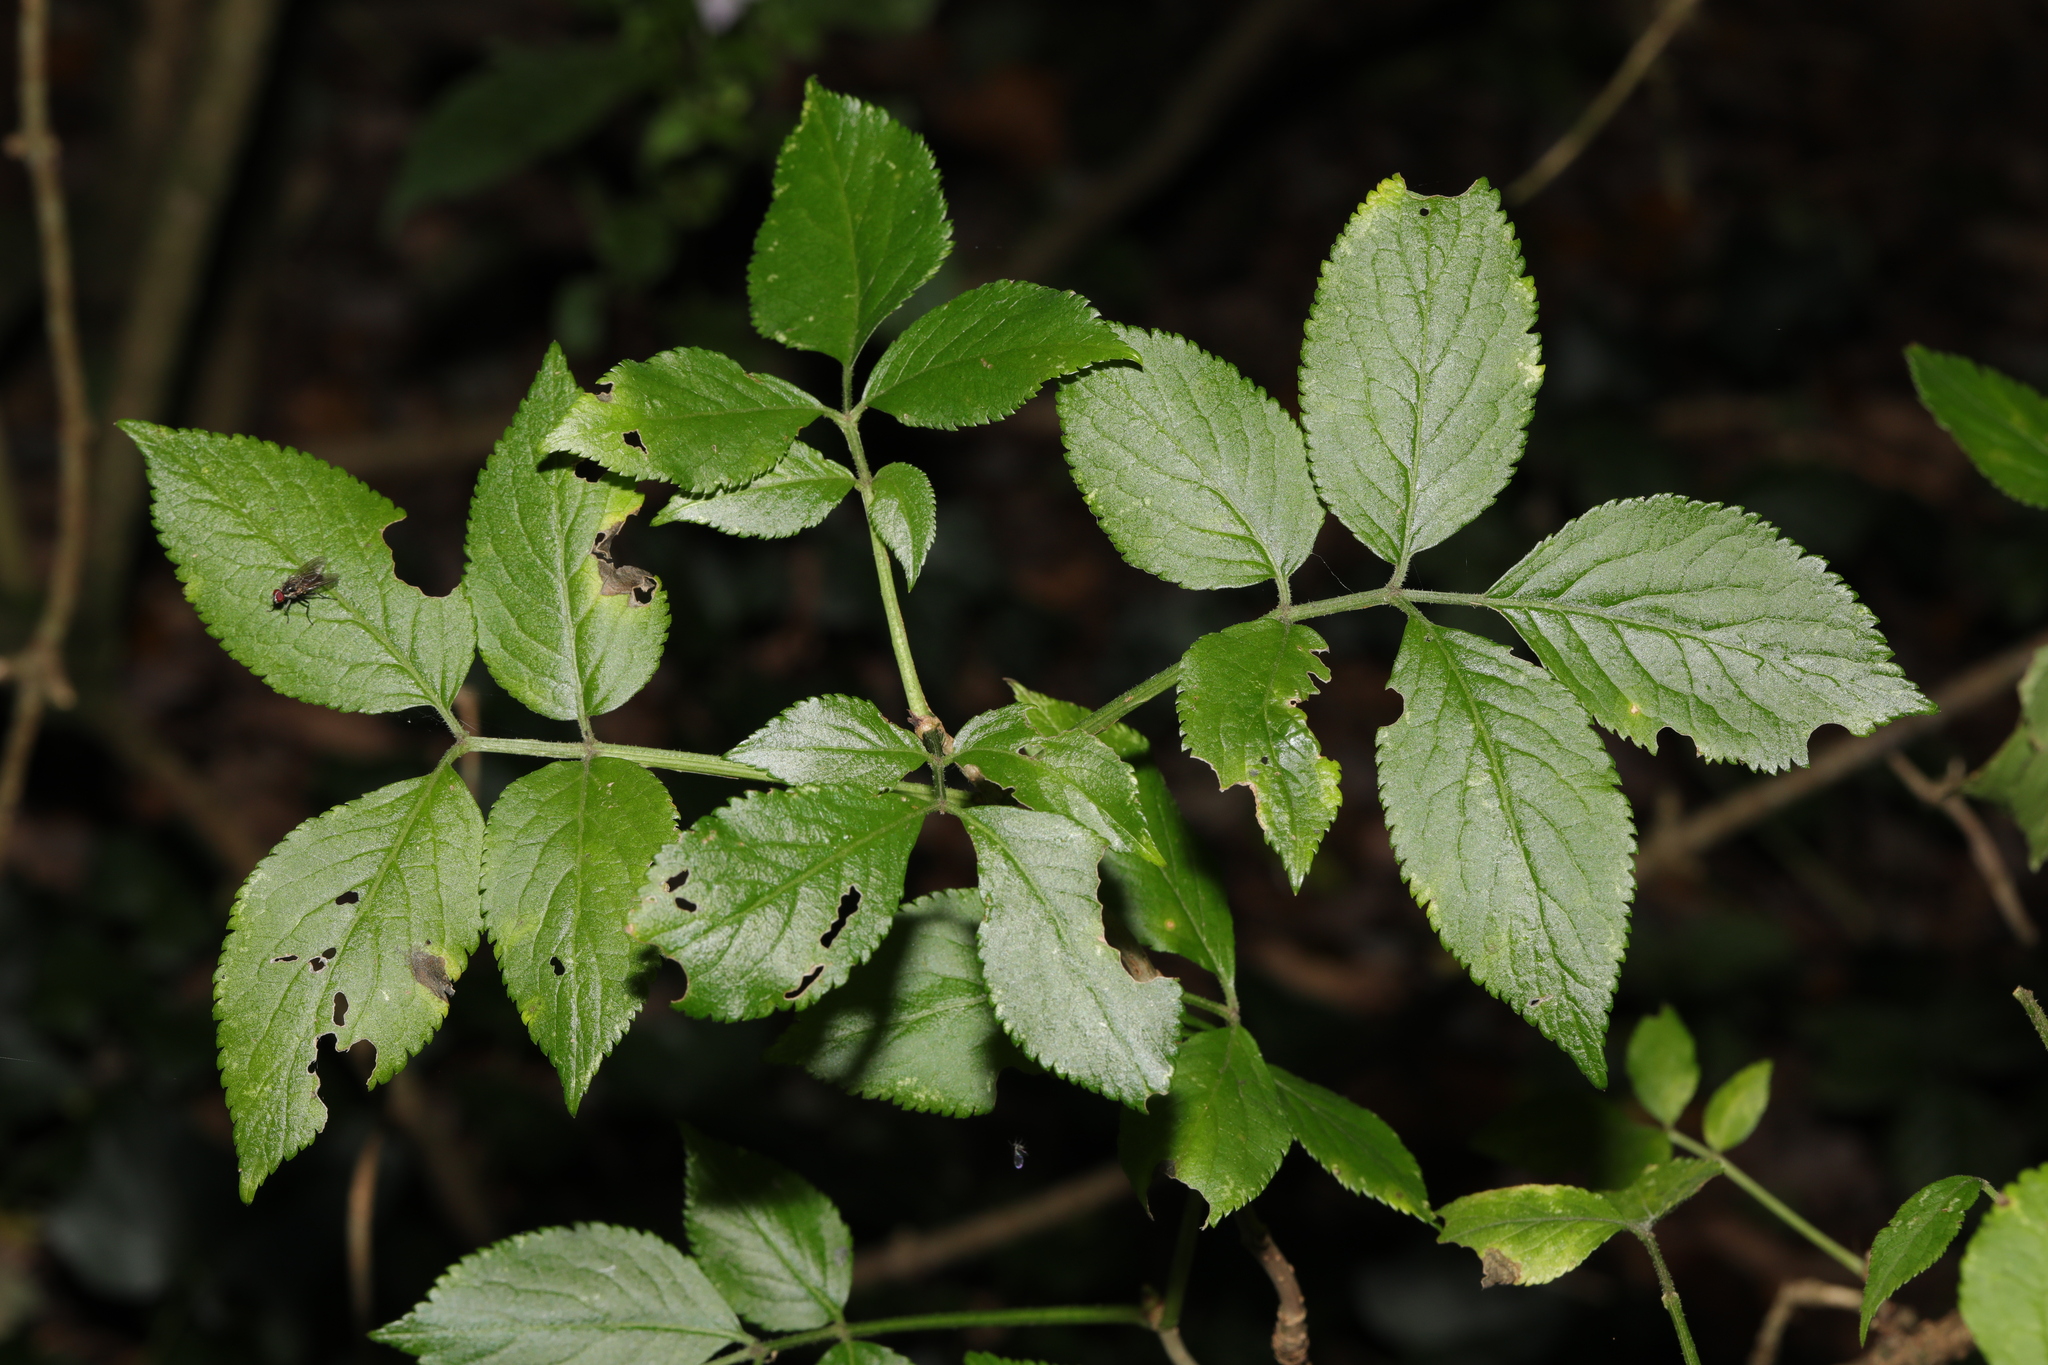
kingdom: Plantae
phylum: Tracheophyta
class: Magnoliopsida
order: Dipsacales
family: Viburnaceae
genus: Sambucus
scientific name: Sambucus nigra
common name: Elder
